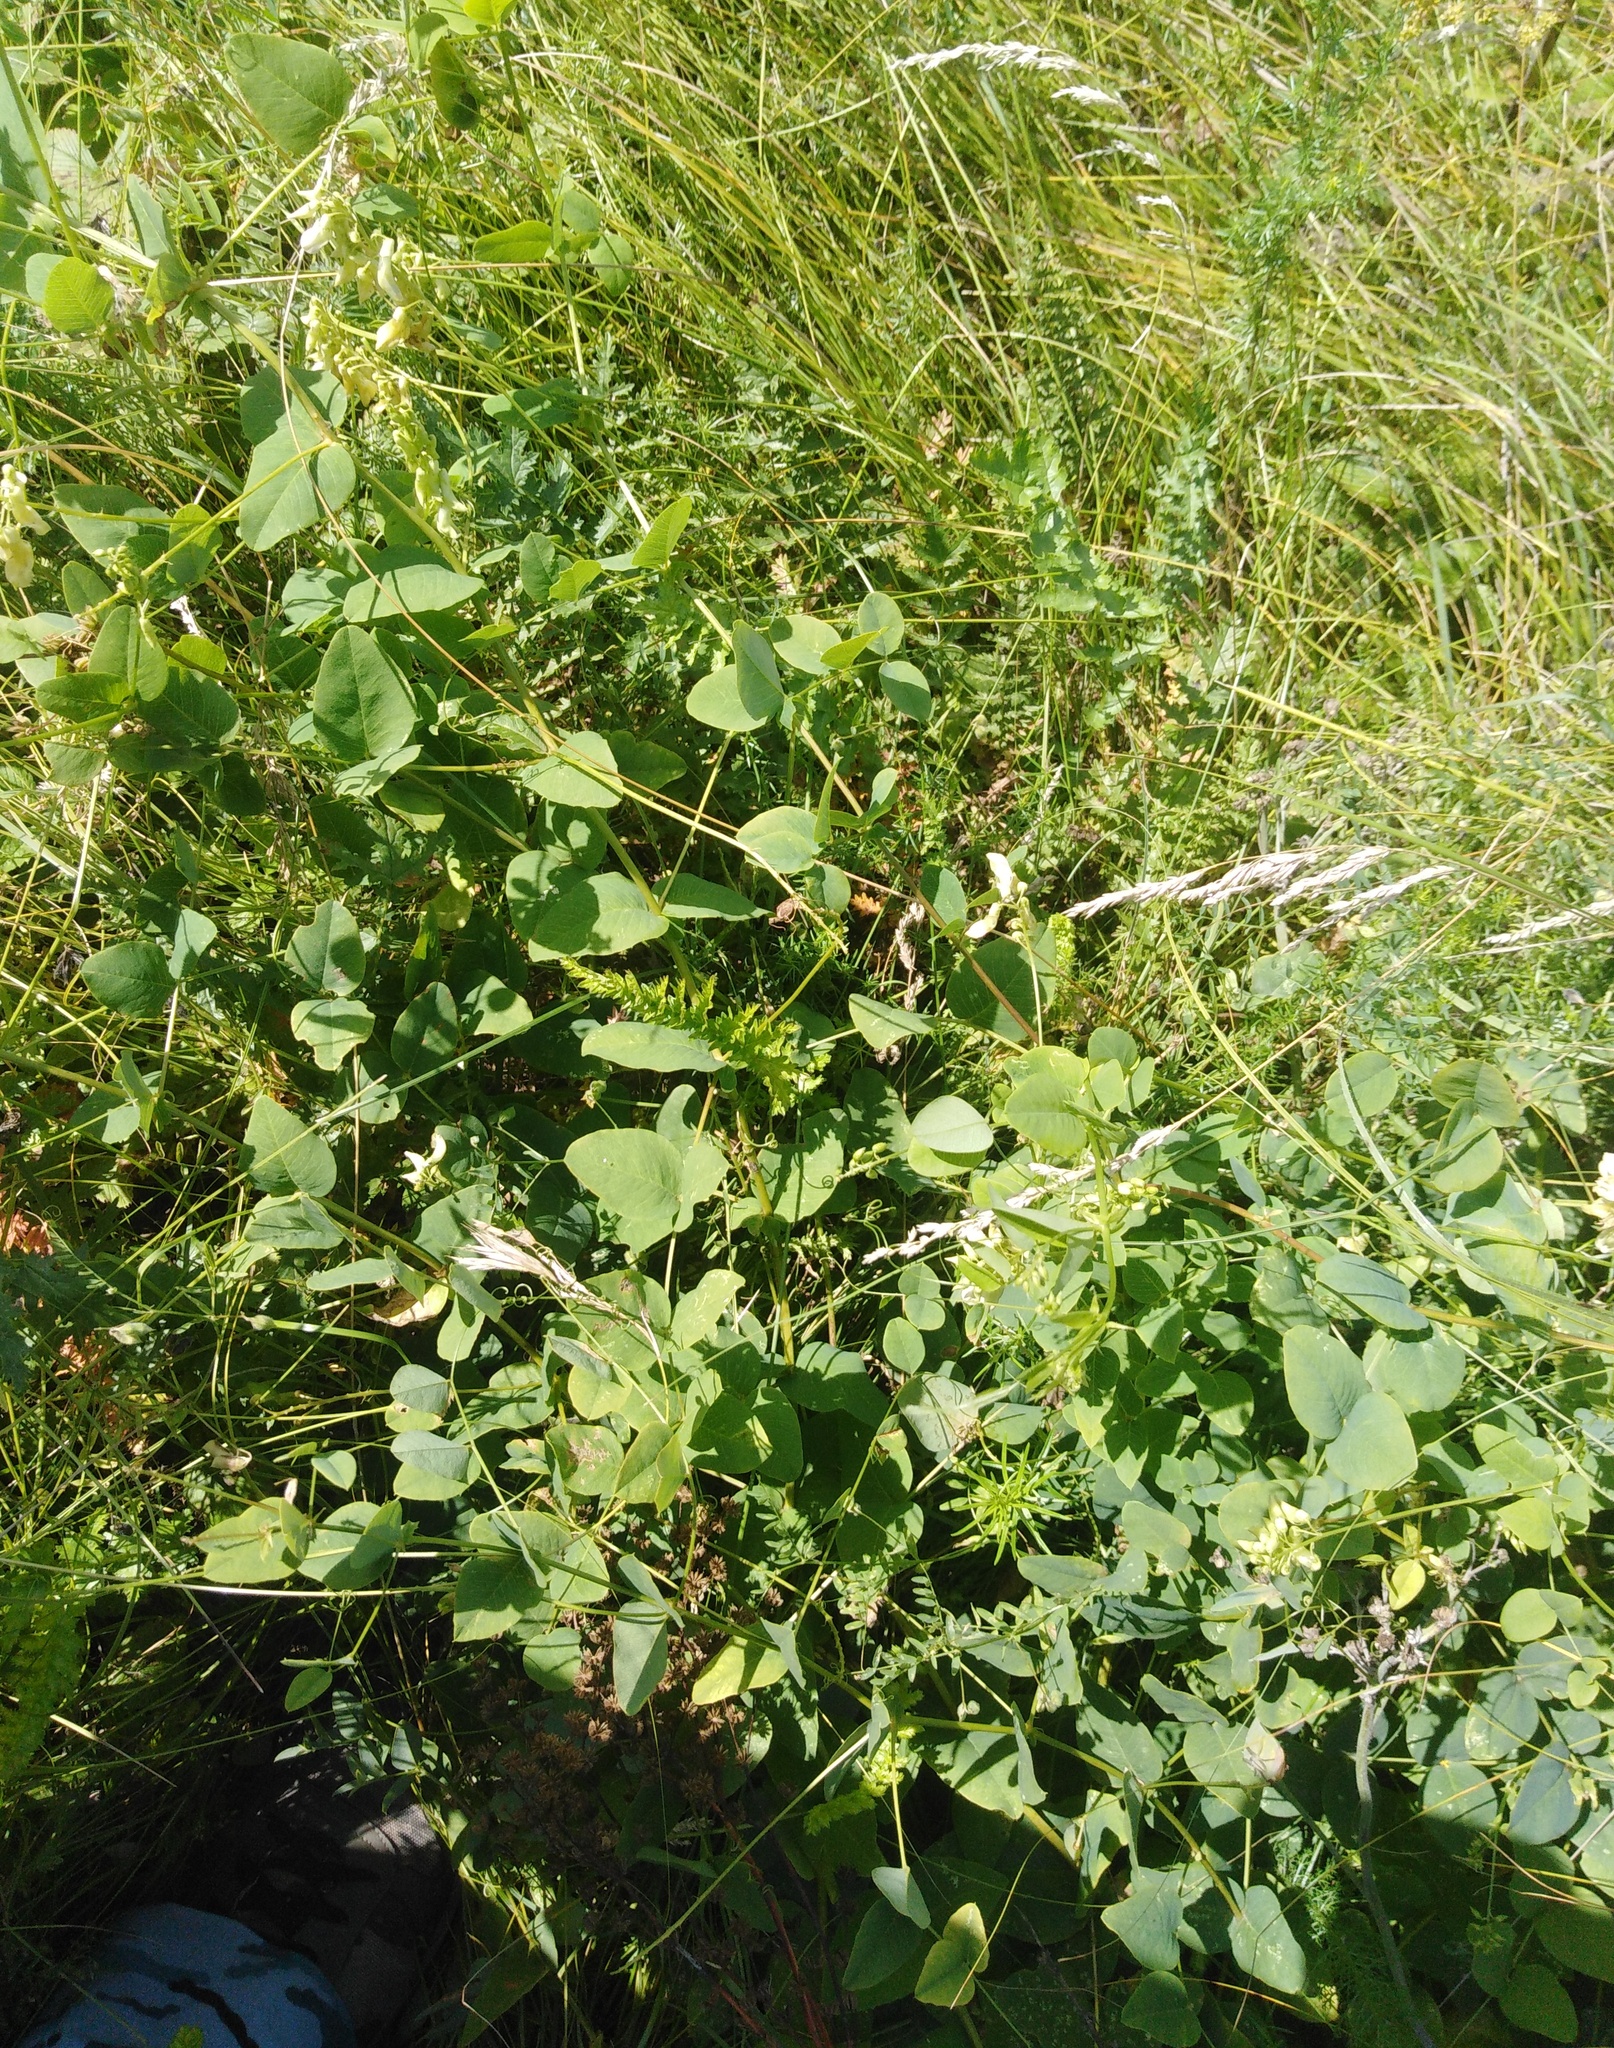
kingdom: Plantae
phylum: Tracheophyta
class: Magnoliopsida
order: Fabales
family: Fabaceae
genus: Vicia
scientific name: Vicia pisiformis
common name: Pale-flower vetch
